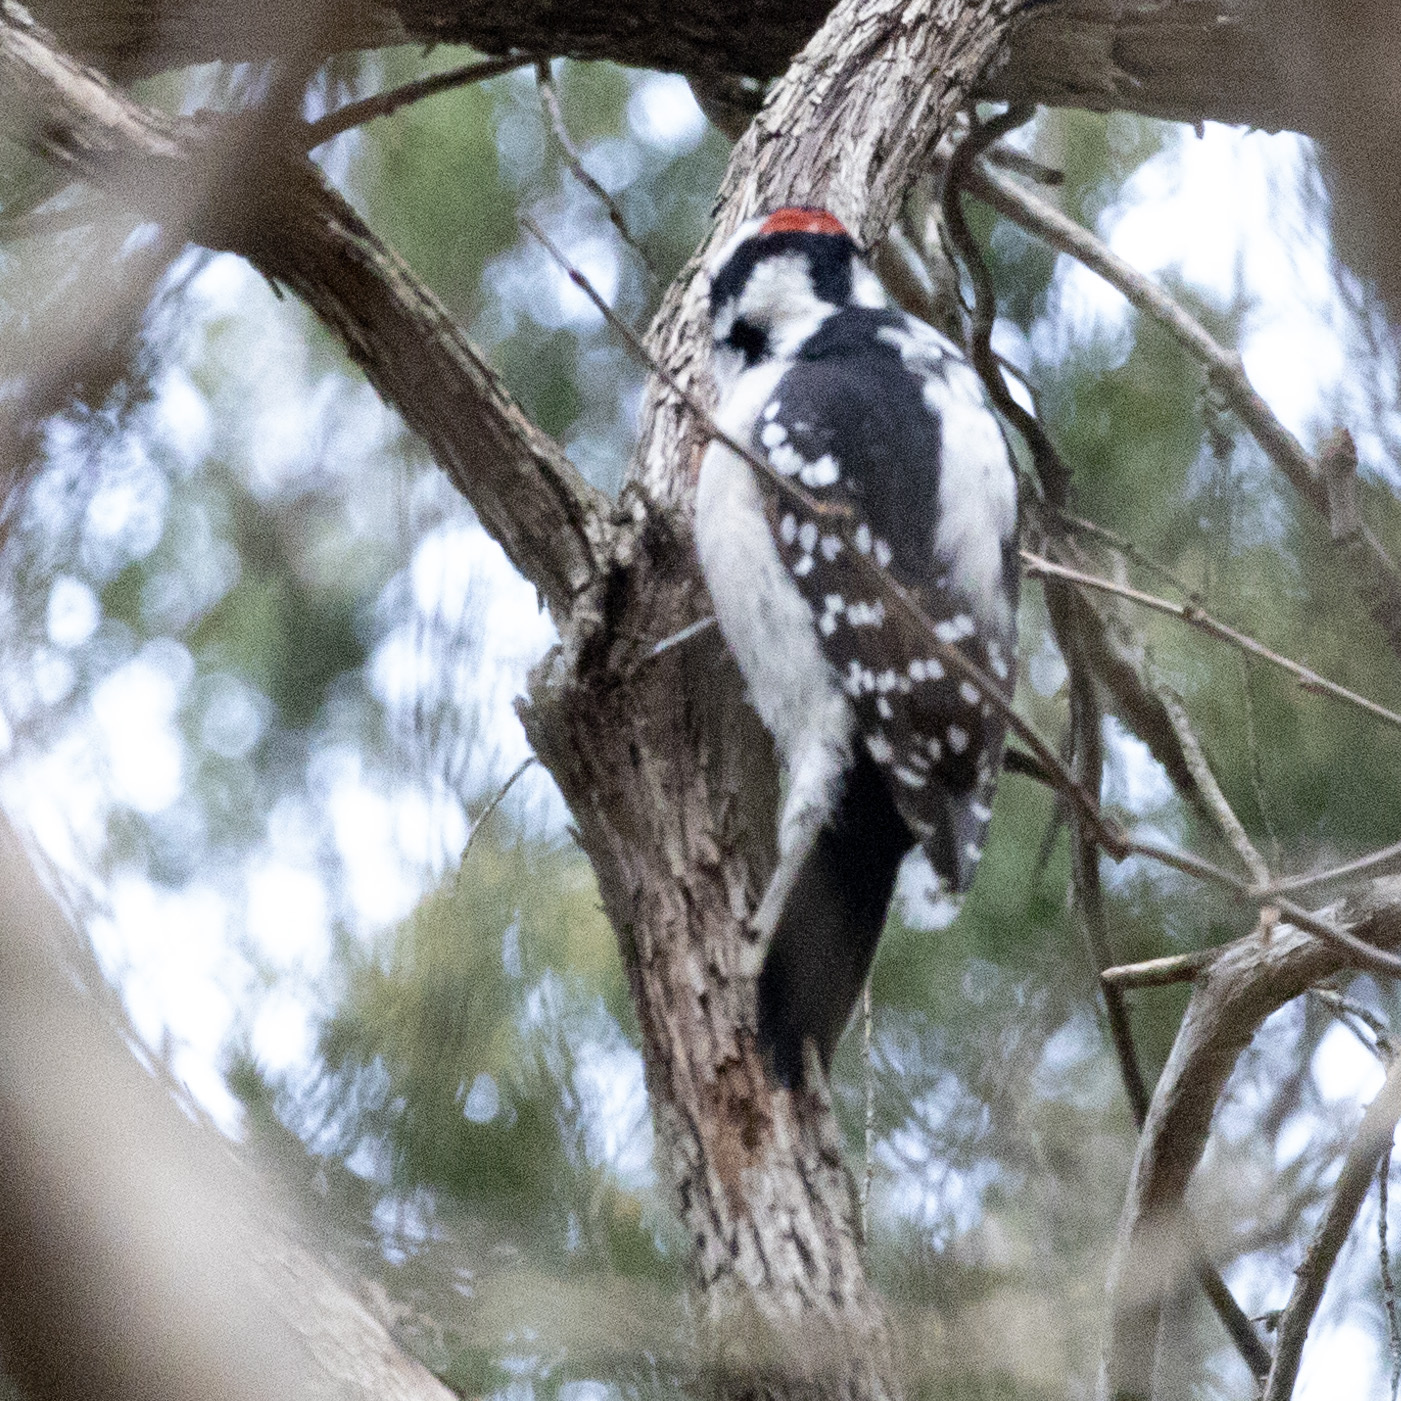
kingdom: Animalia
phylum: Chordata
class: Aves
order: Piciformes
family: Picidae
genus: Dryobates
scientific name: Dryobates pubescens
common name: Downy woodpecker
